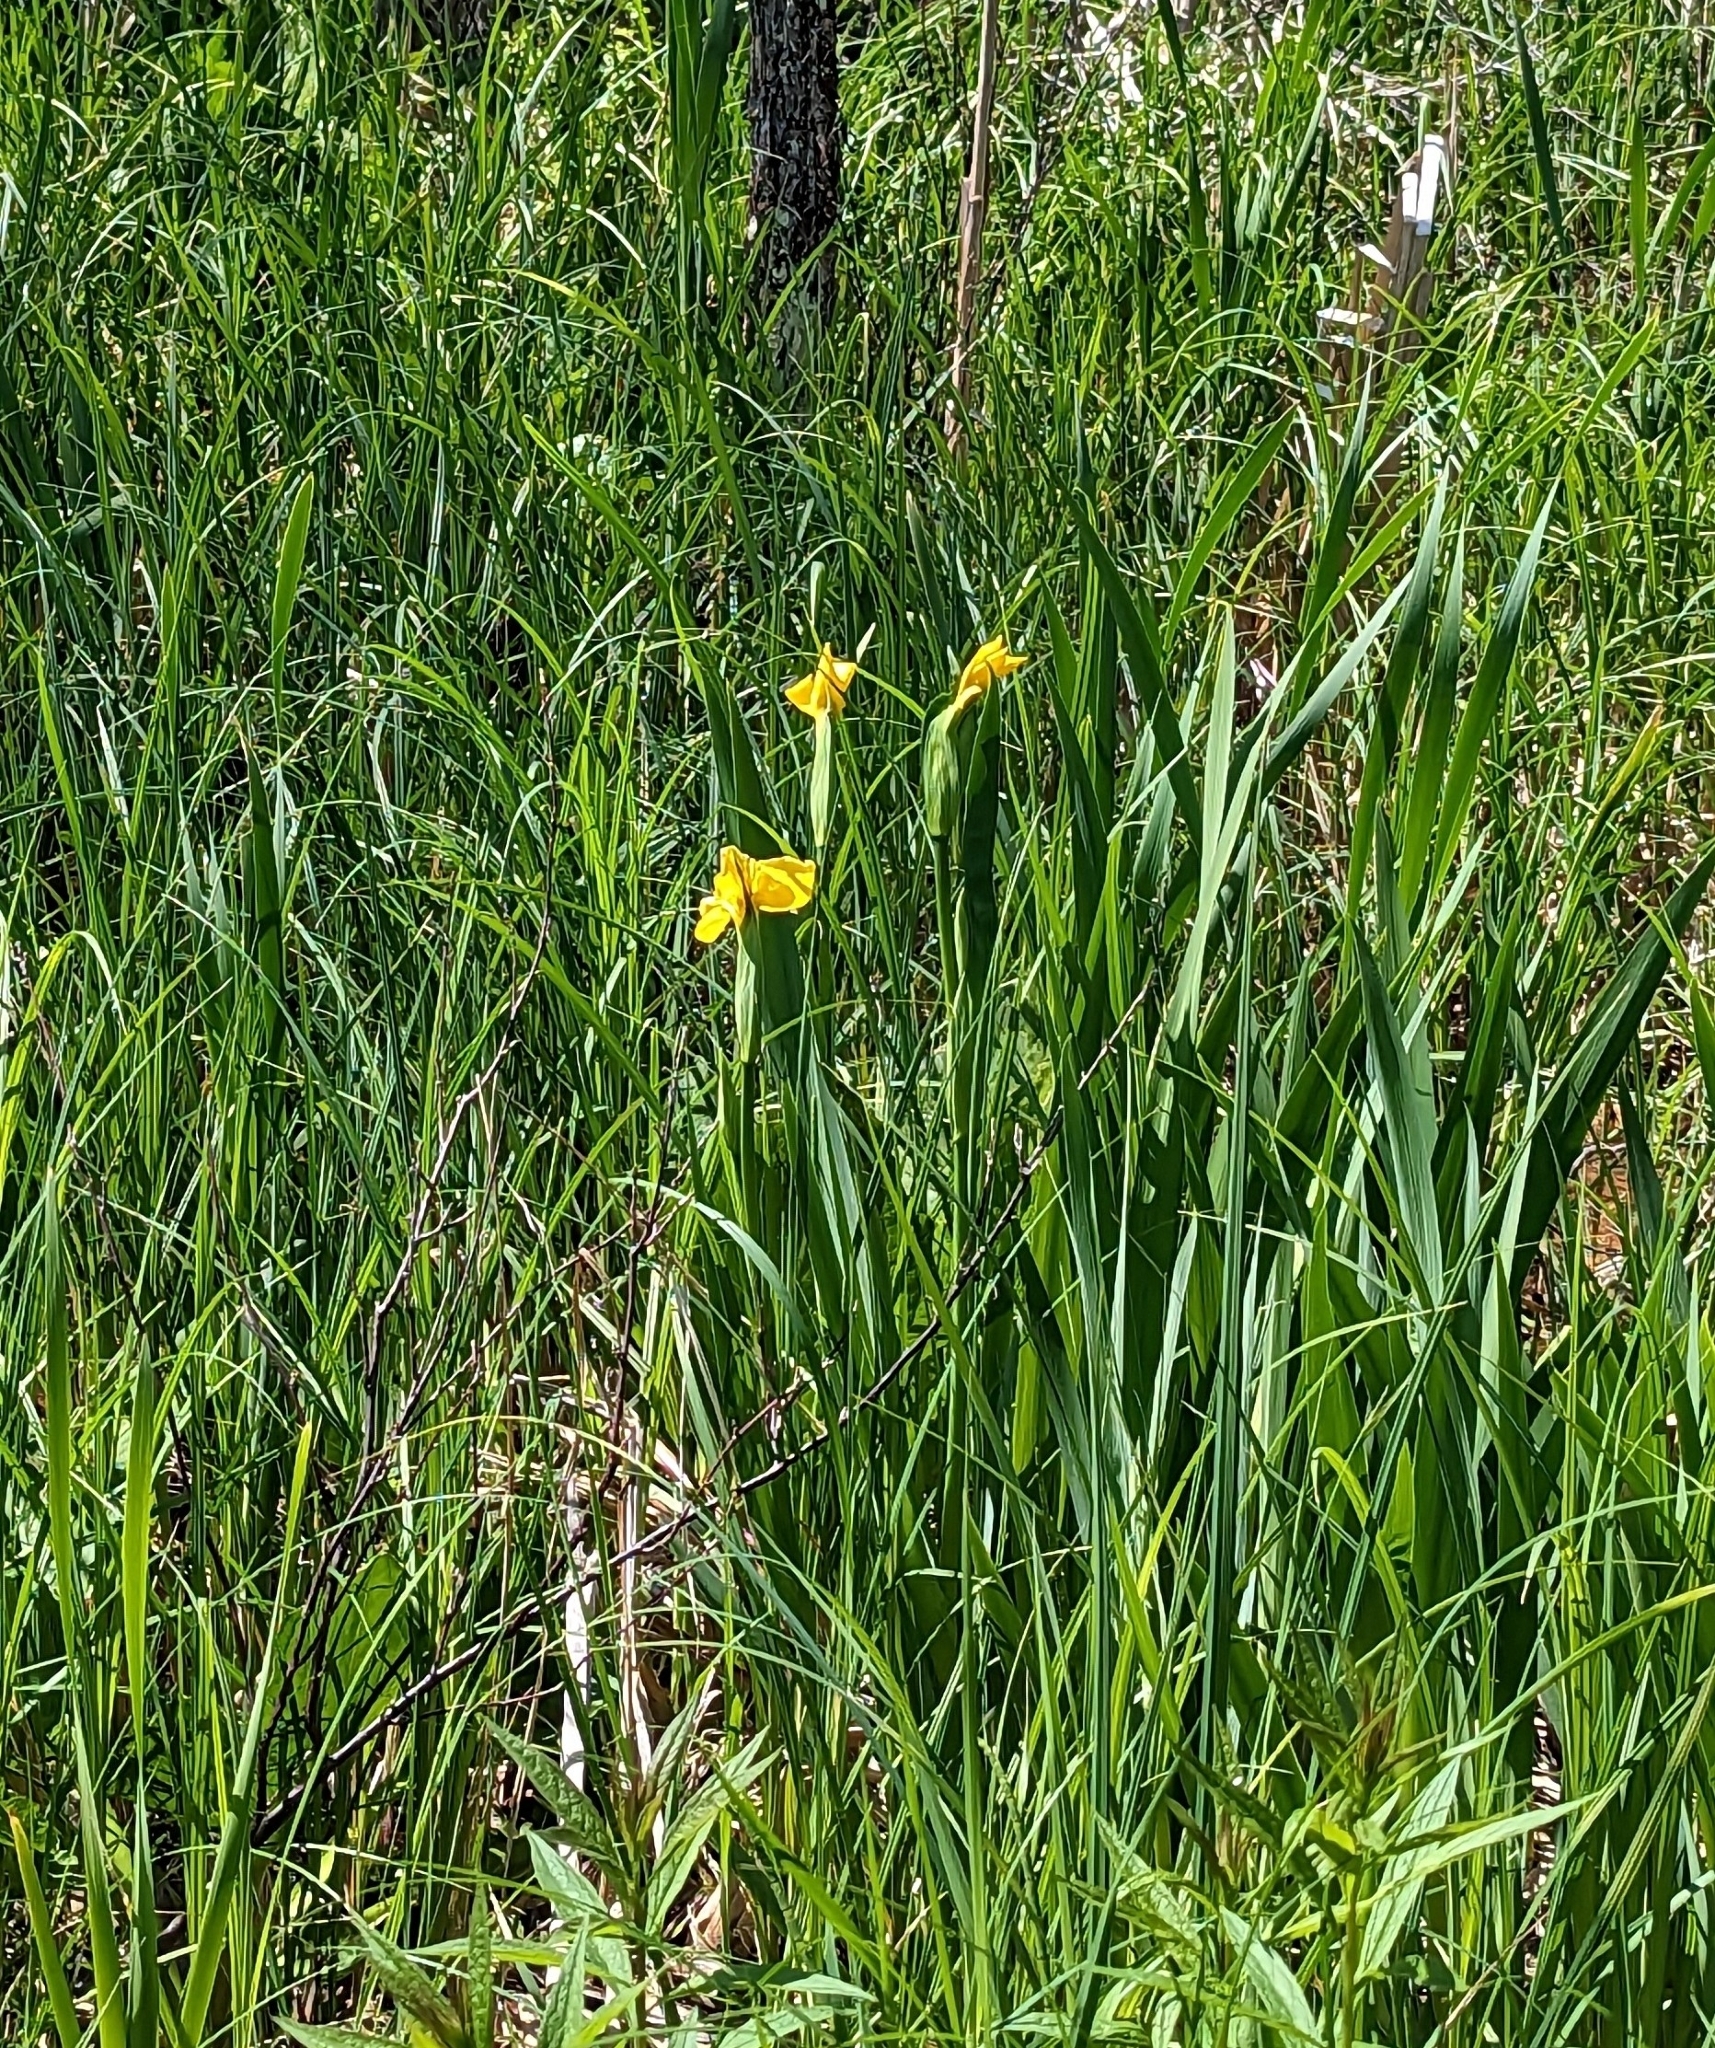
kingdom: Plantae
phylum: Tracheophyta
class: Liliopsida
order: Asparagales
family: Iridaceae
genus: Iris
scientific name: Iris pseudacorus
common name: Yellow flag
